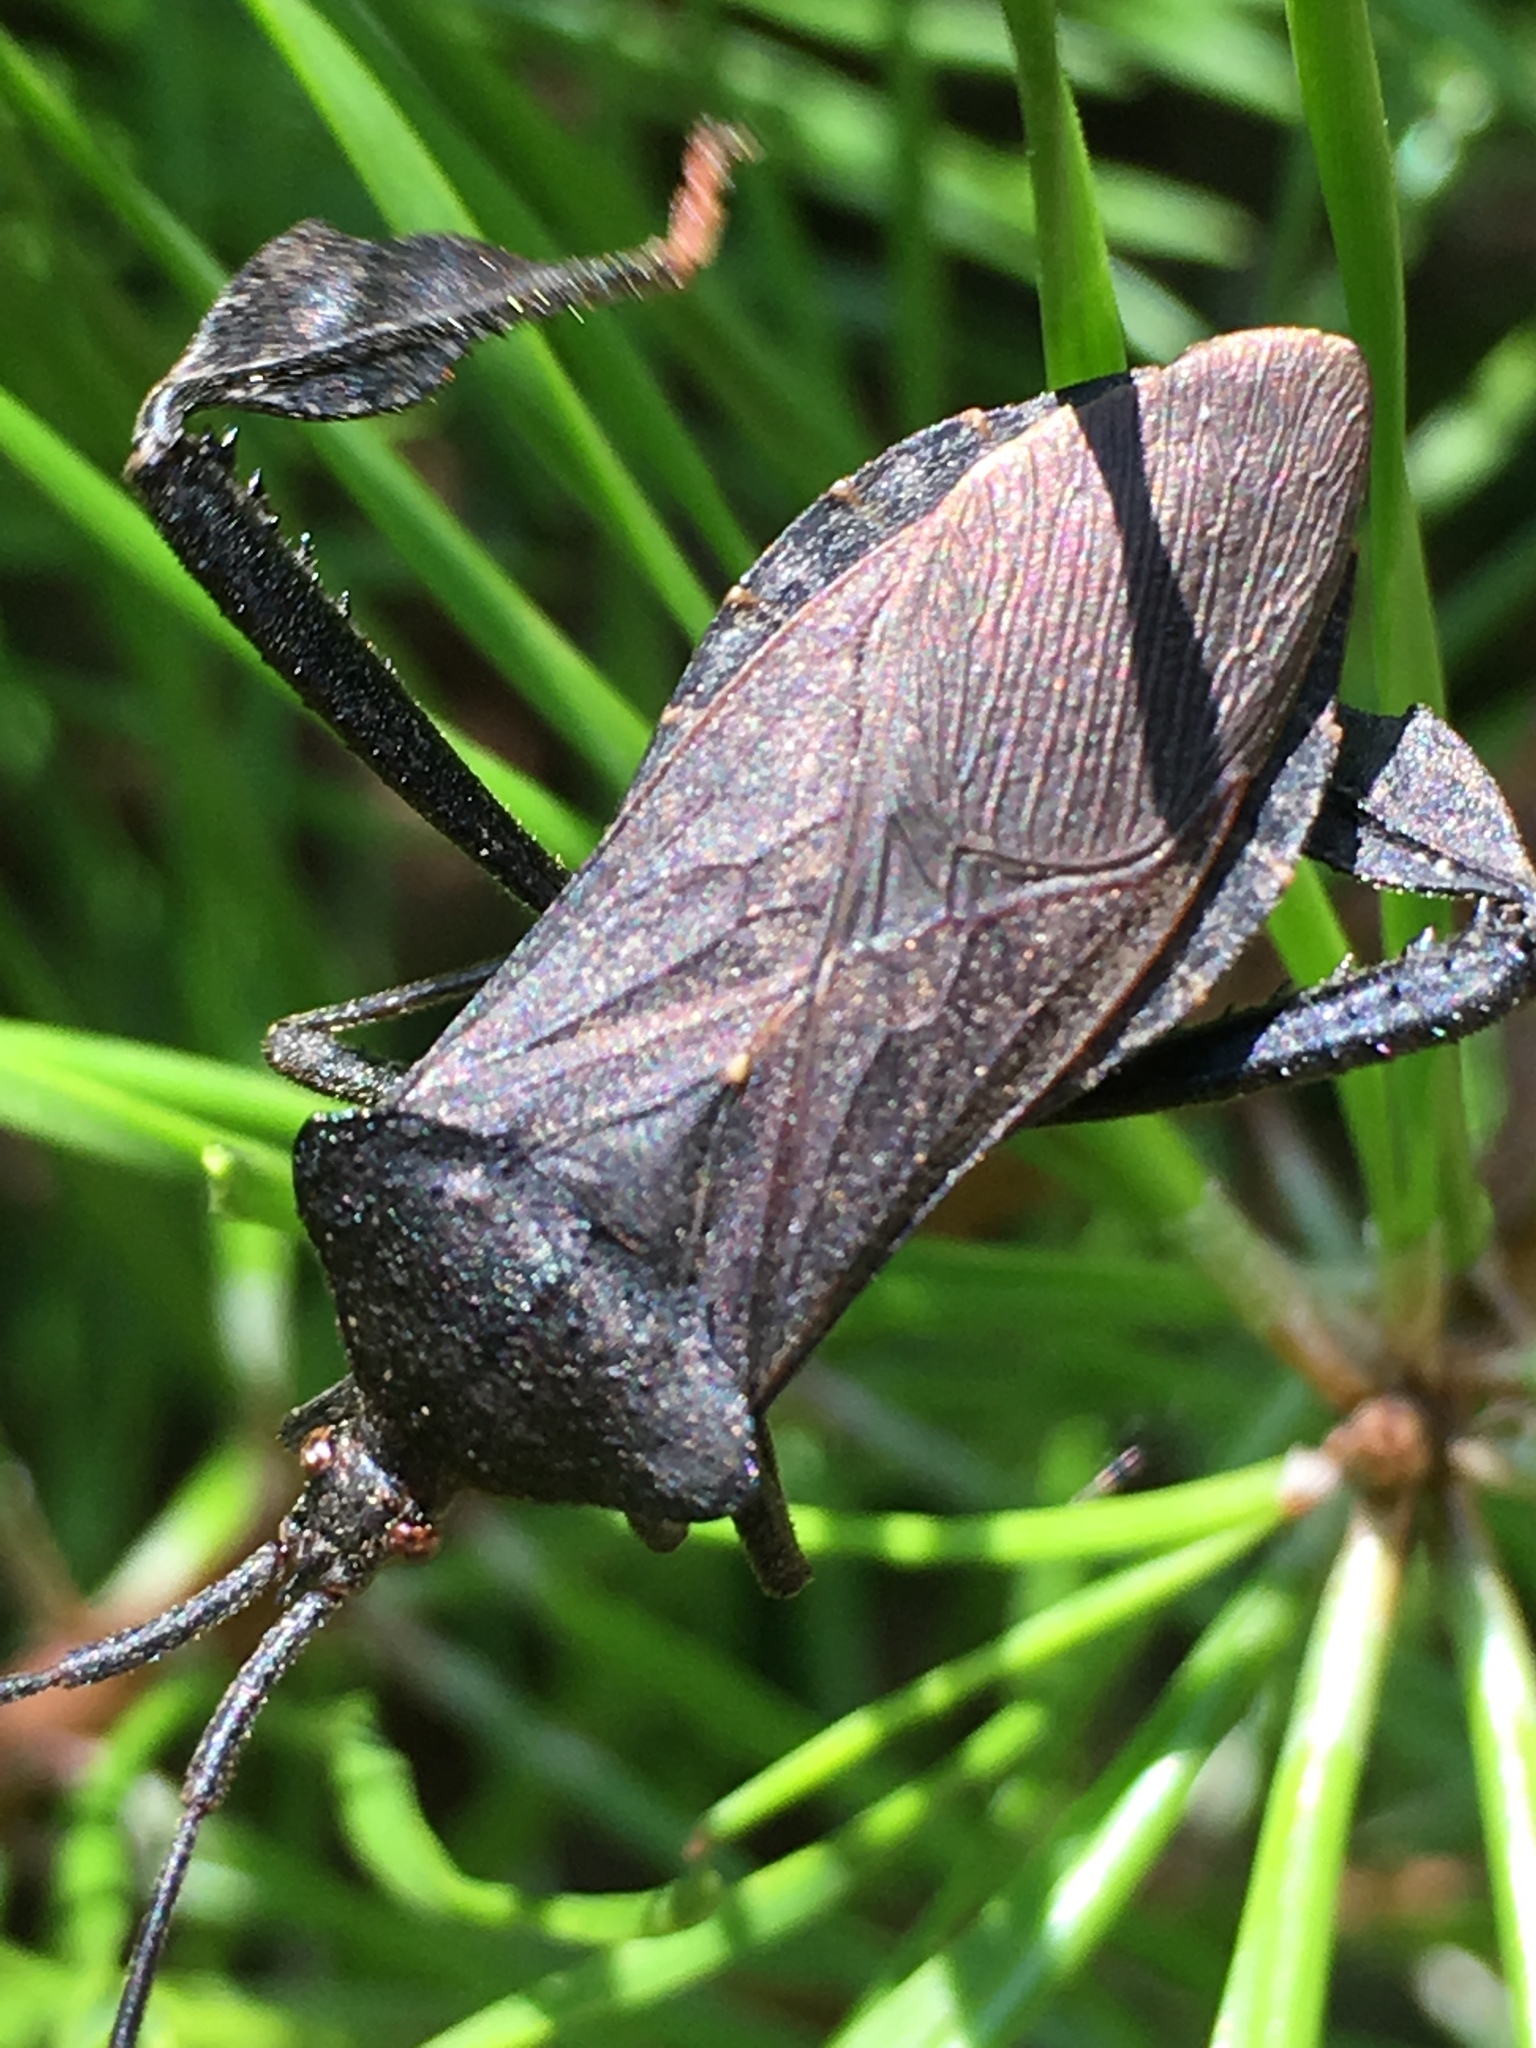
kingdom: Animalia
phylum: Arthropoda
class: Insecta
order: Hemiptera
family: Coreidae
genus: Acanthocephala
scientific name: Acanthocephala terminalis
